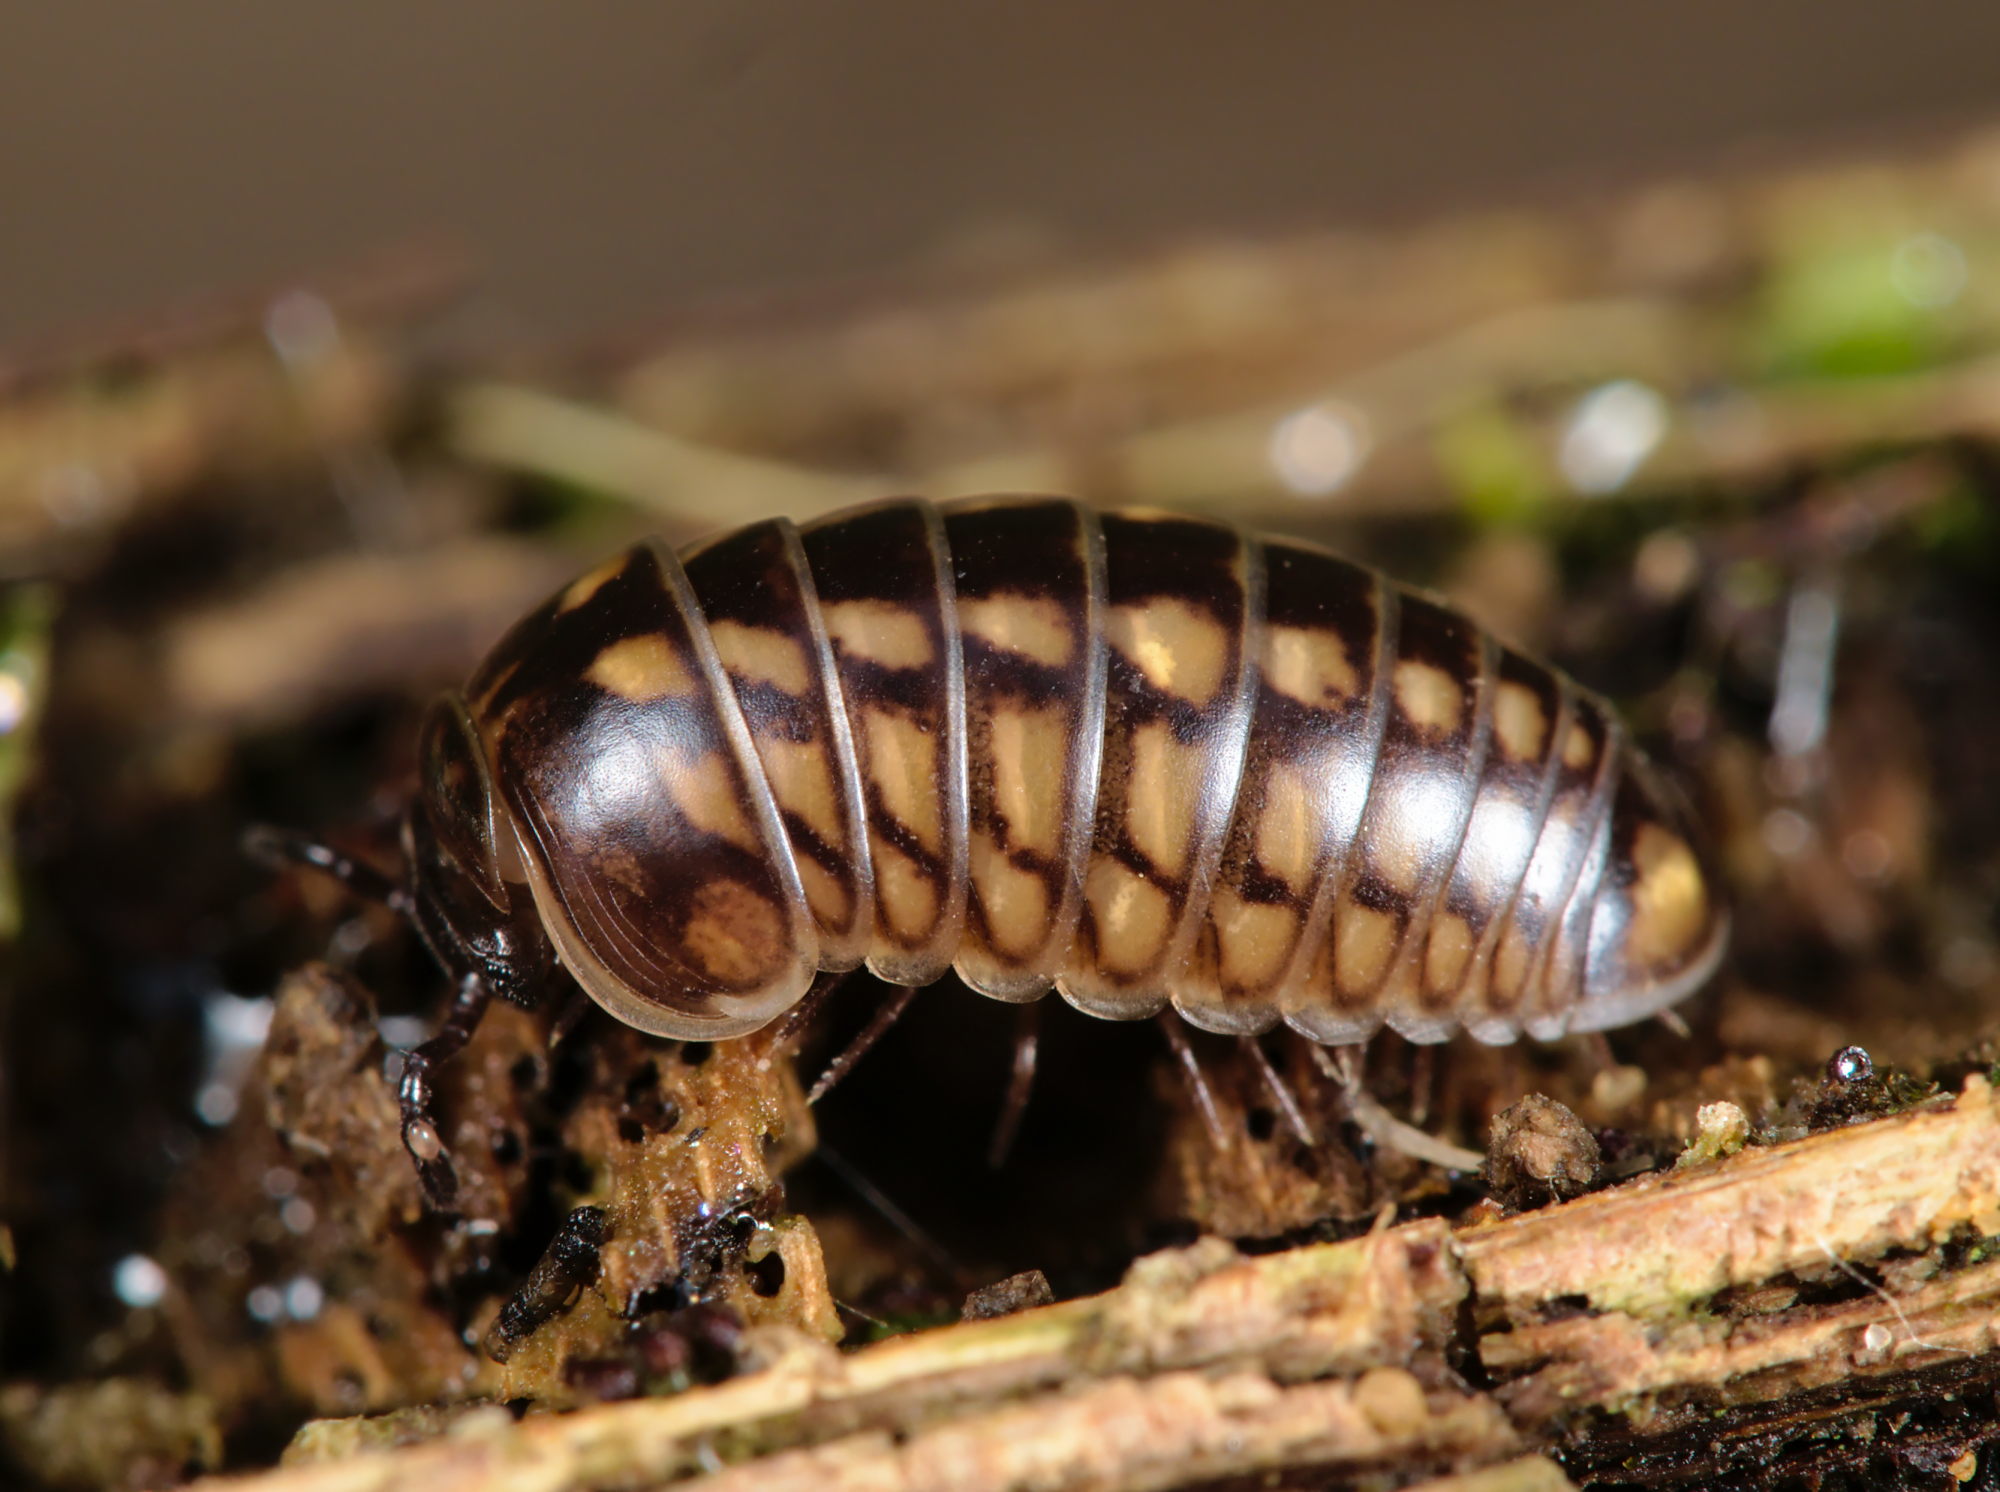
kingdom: Animalia
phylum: Arthropoda
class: Diplopoda
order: Glomerida
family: Glomeridae
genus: Glomeris
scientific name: Glomeris intermedia
